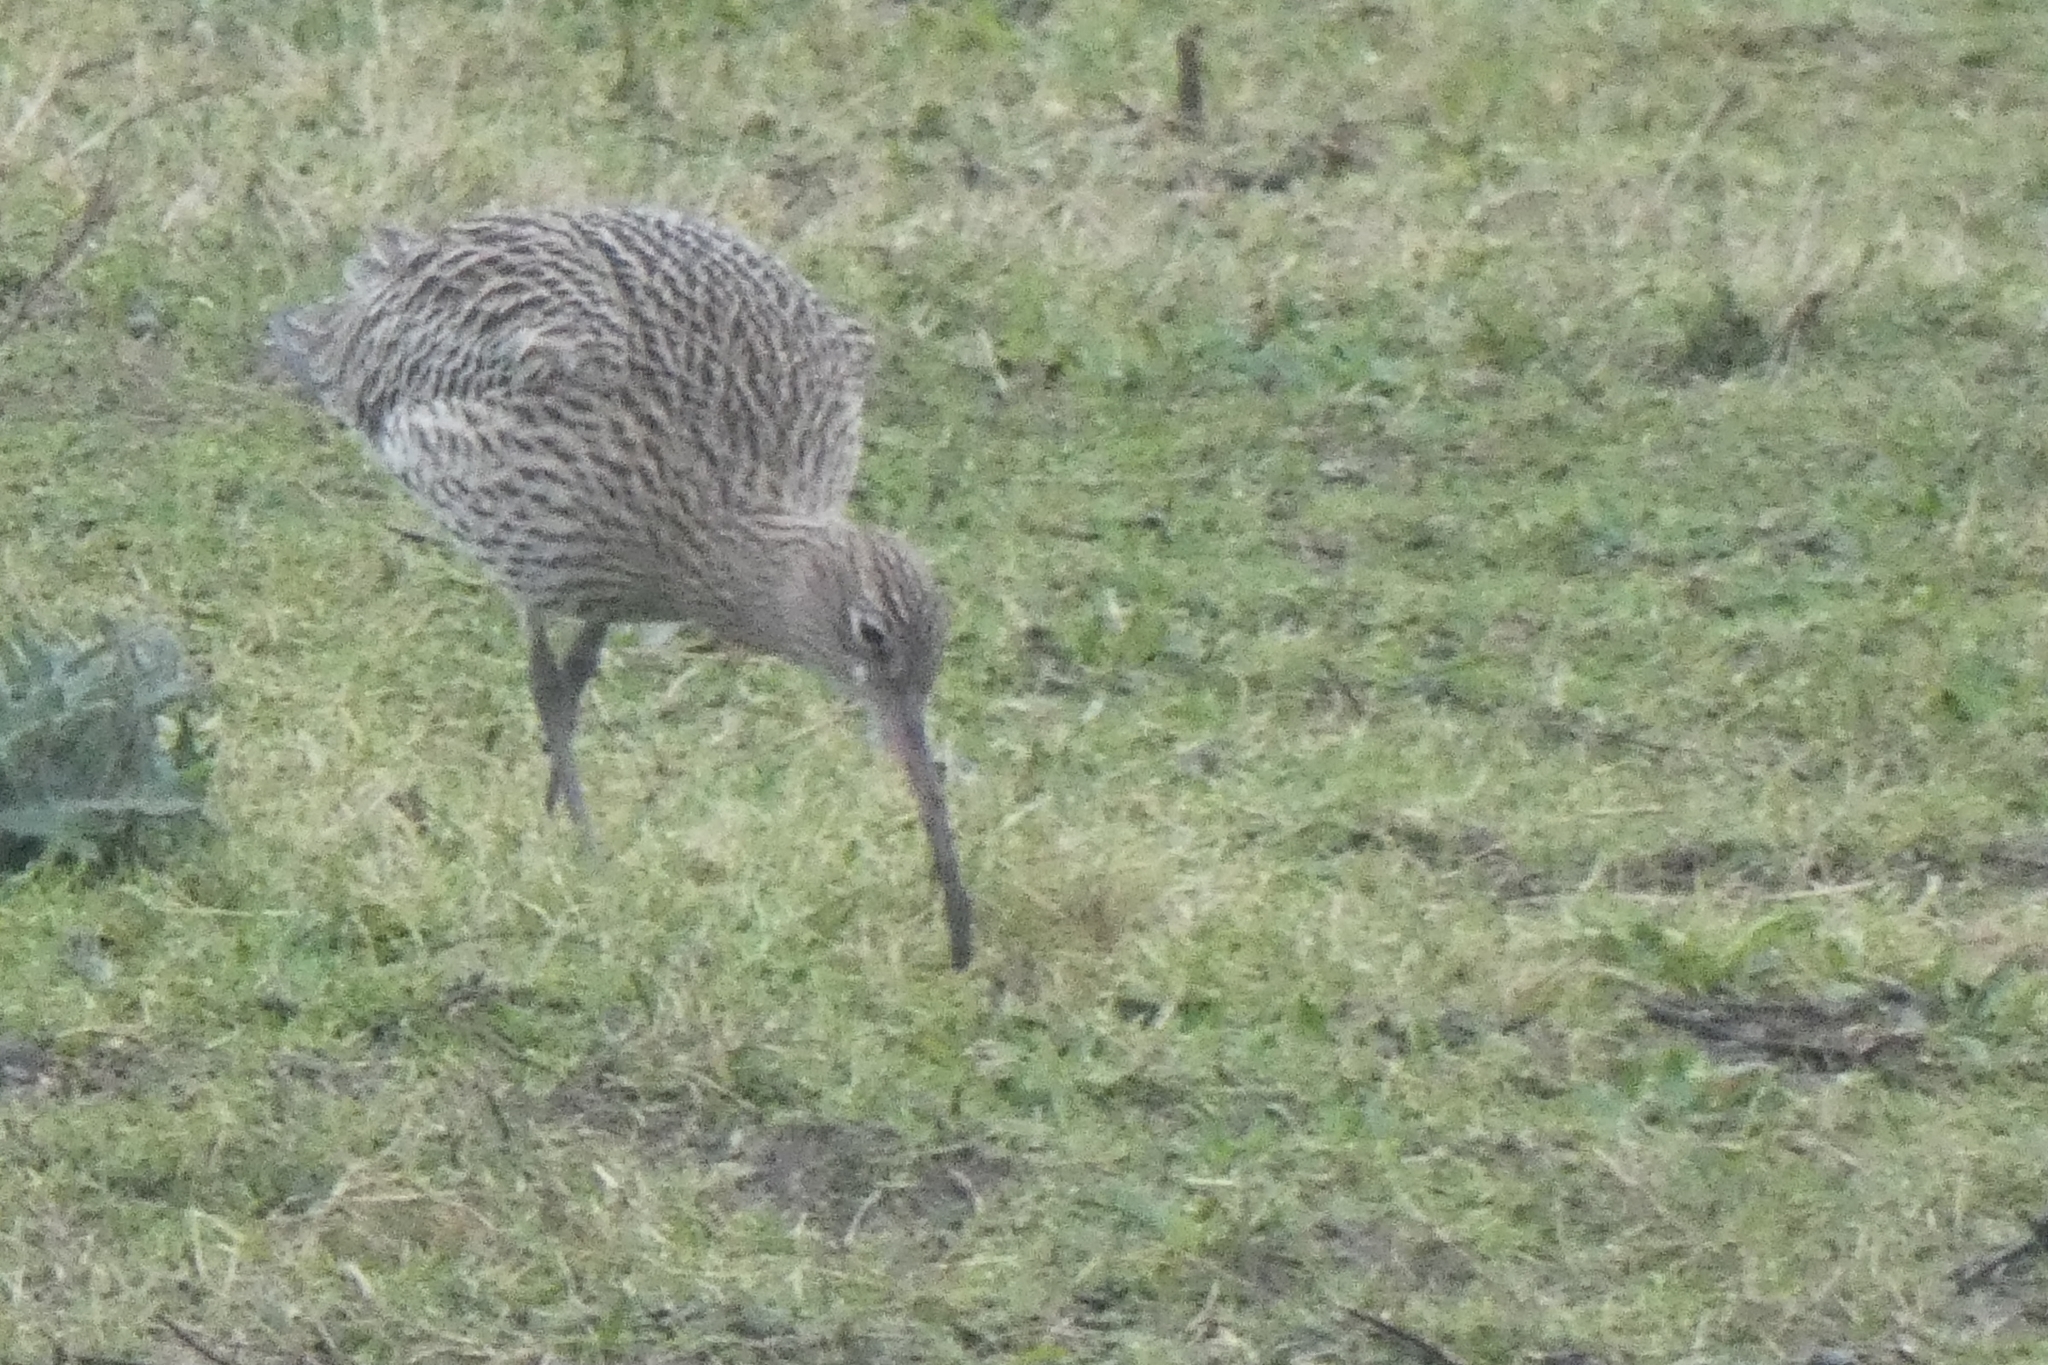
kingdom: Animalia
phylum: Chordata
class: Aves
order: Charadriiformes
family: Scolopacidae
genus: Numenius
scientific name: Numenius arquata
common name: Eurasian curlew
